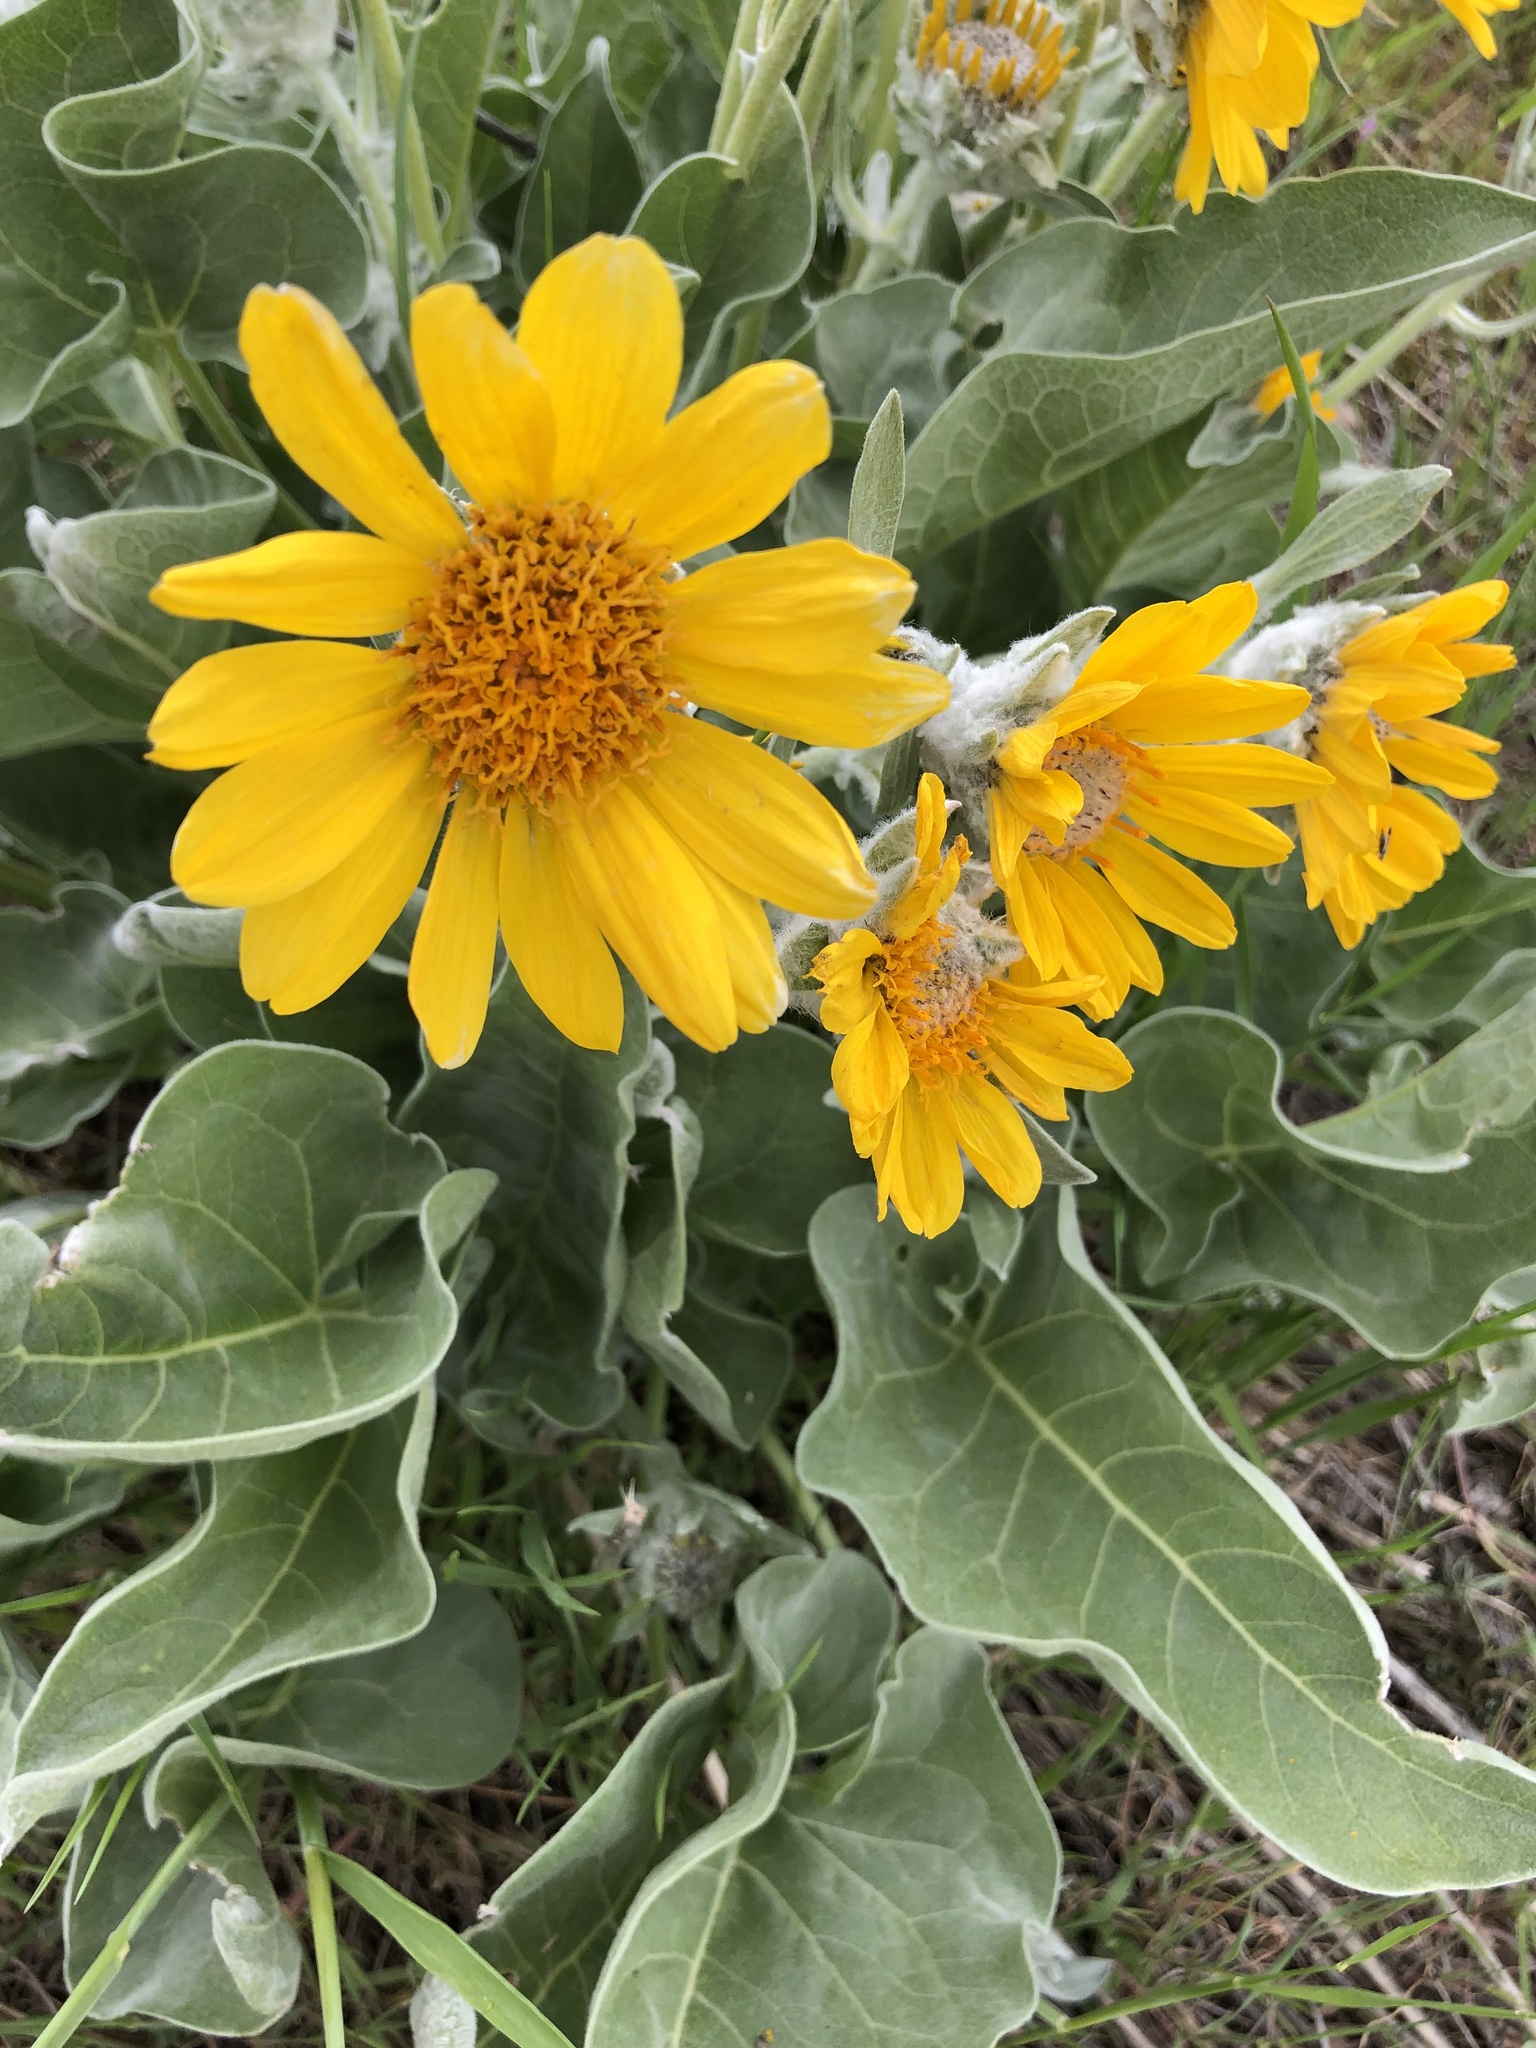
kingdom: Plantae
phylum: Tracheophyta
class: Magnoliopsida
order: Asterales
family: Asteraceae
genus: Wyethia
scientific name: Wyethia sagittata
